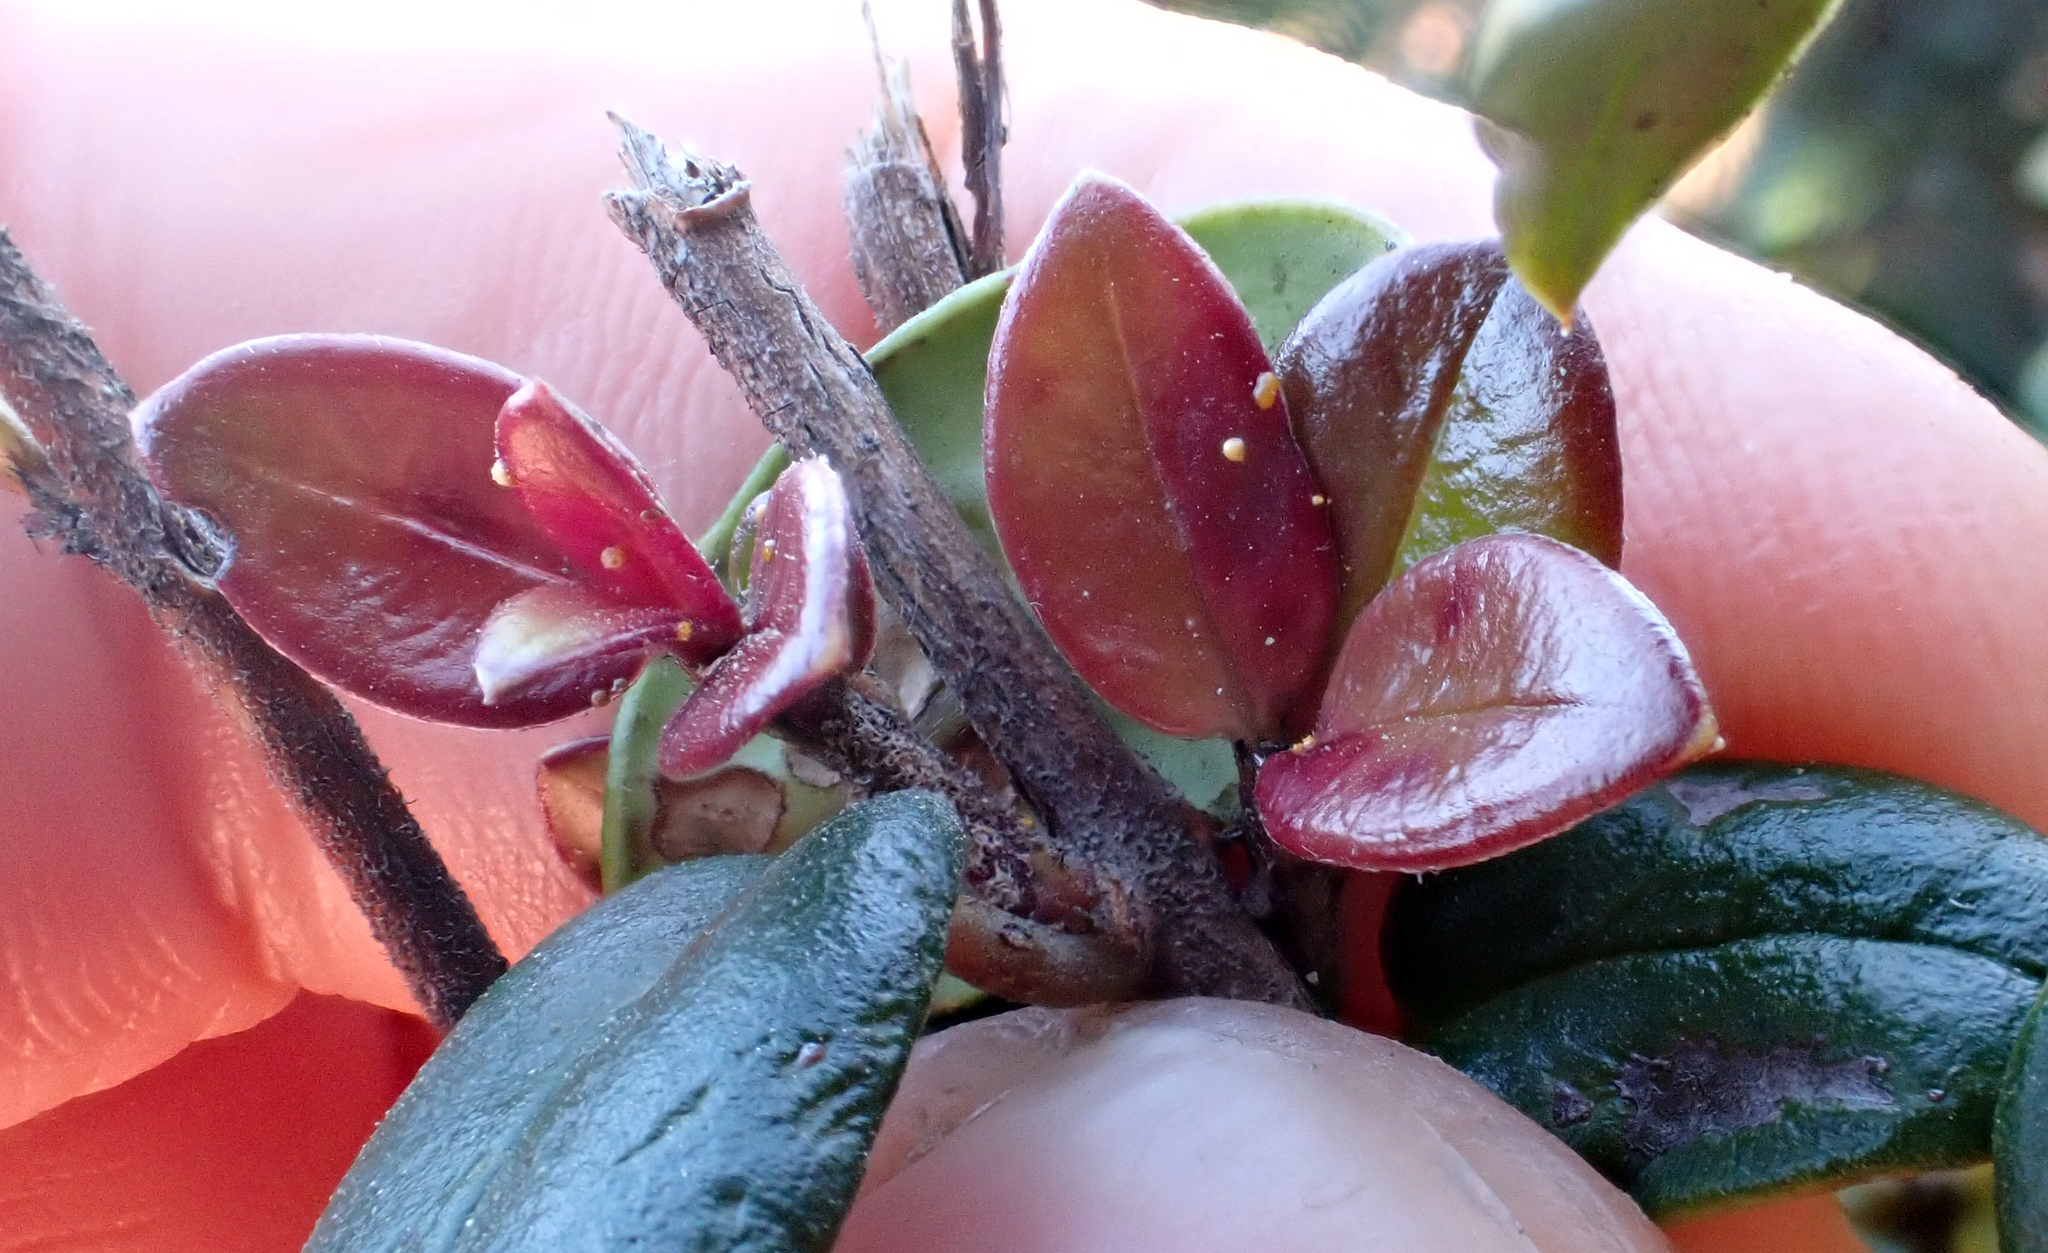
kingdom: Fungi
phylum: Basidiomycota
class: Pucciniomycetes
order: Pucciniales
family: Sphaerophragmiaceae
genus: Austropuccinia
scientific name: Austropuccinia psidii
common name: Myrtle rust
